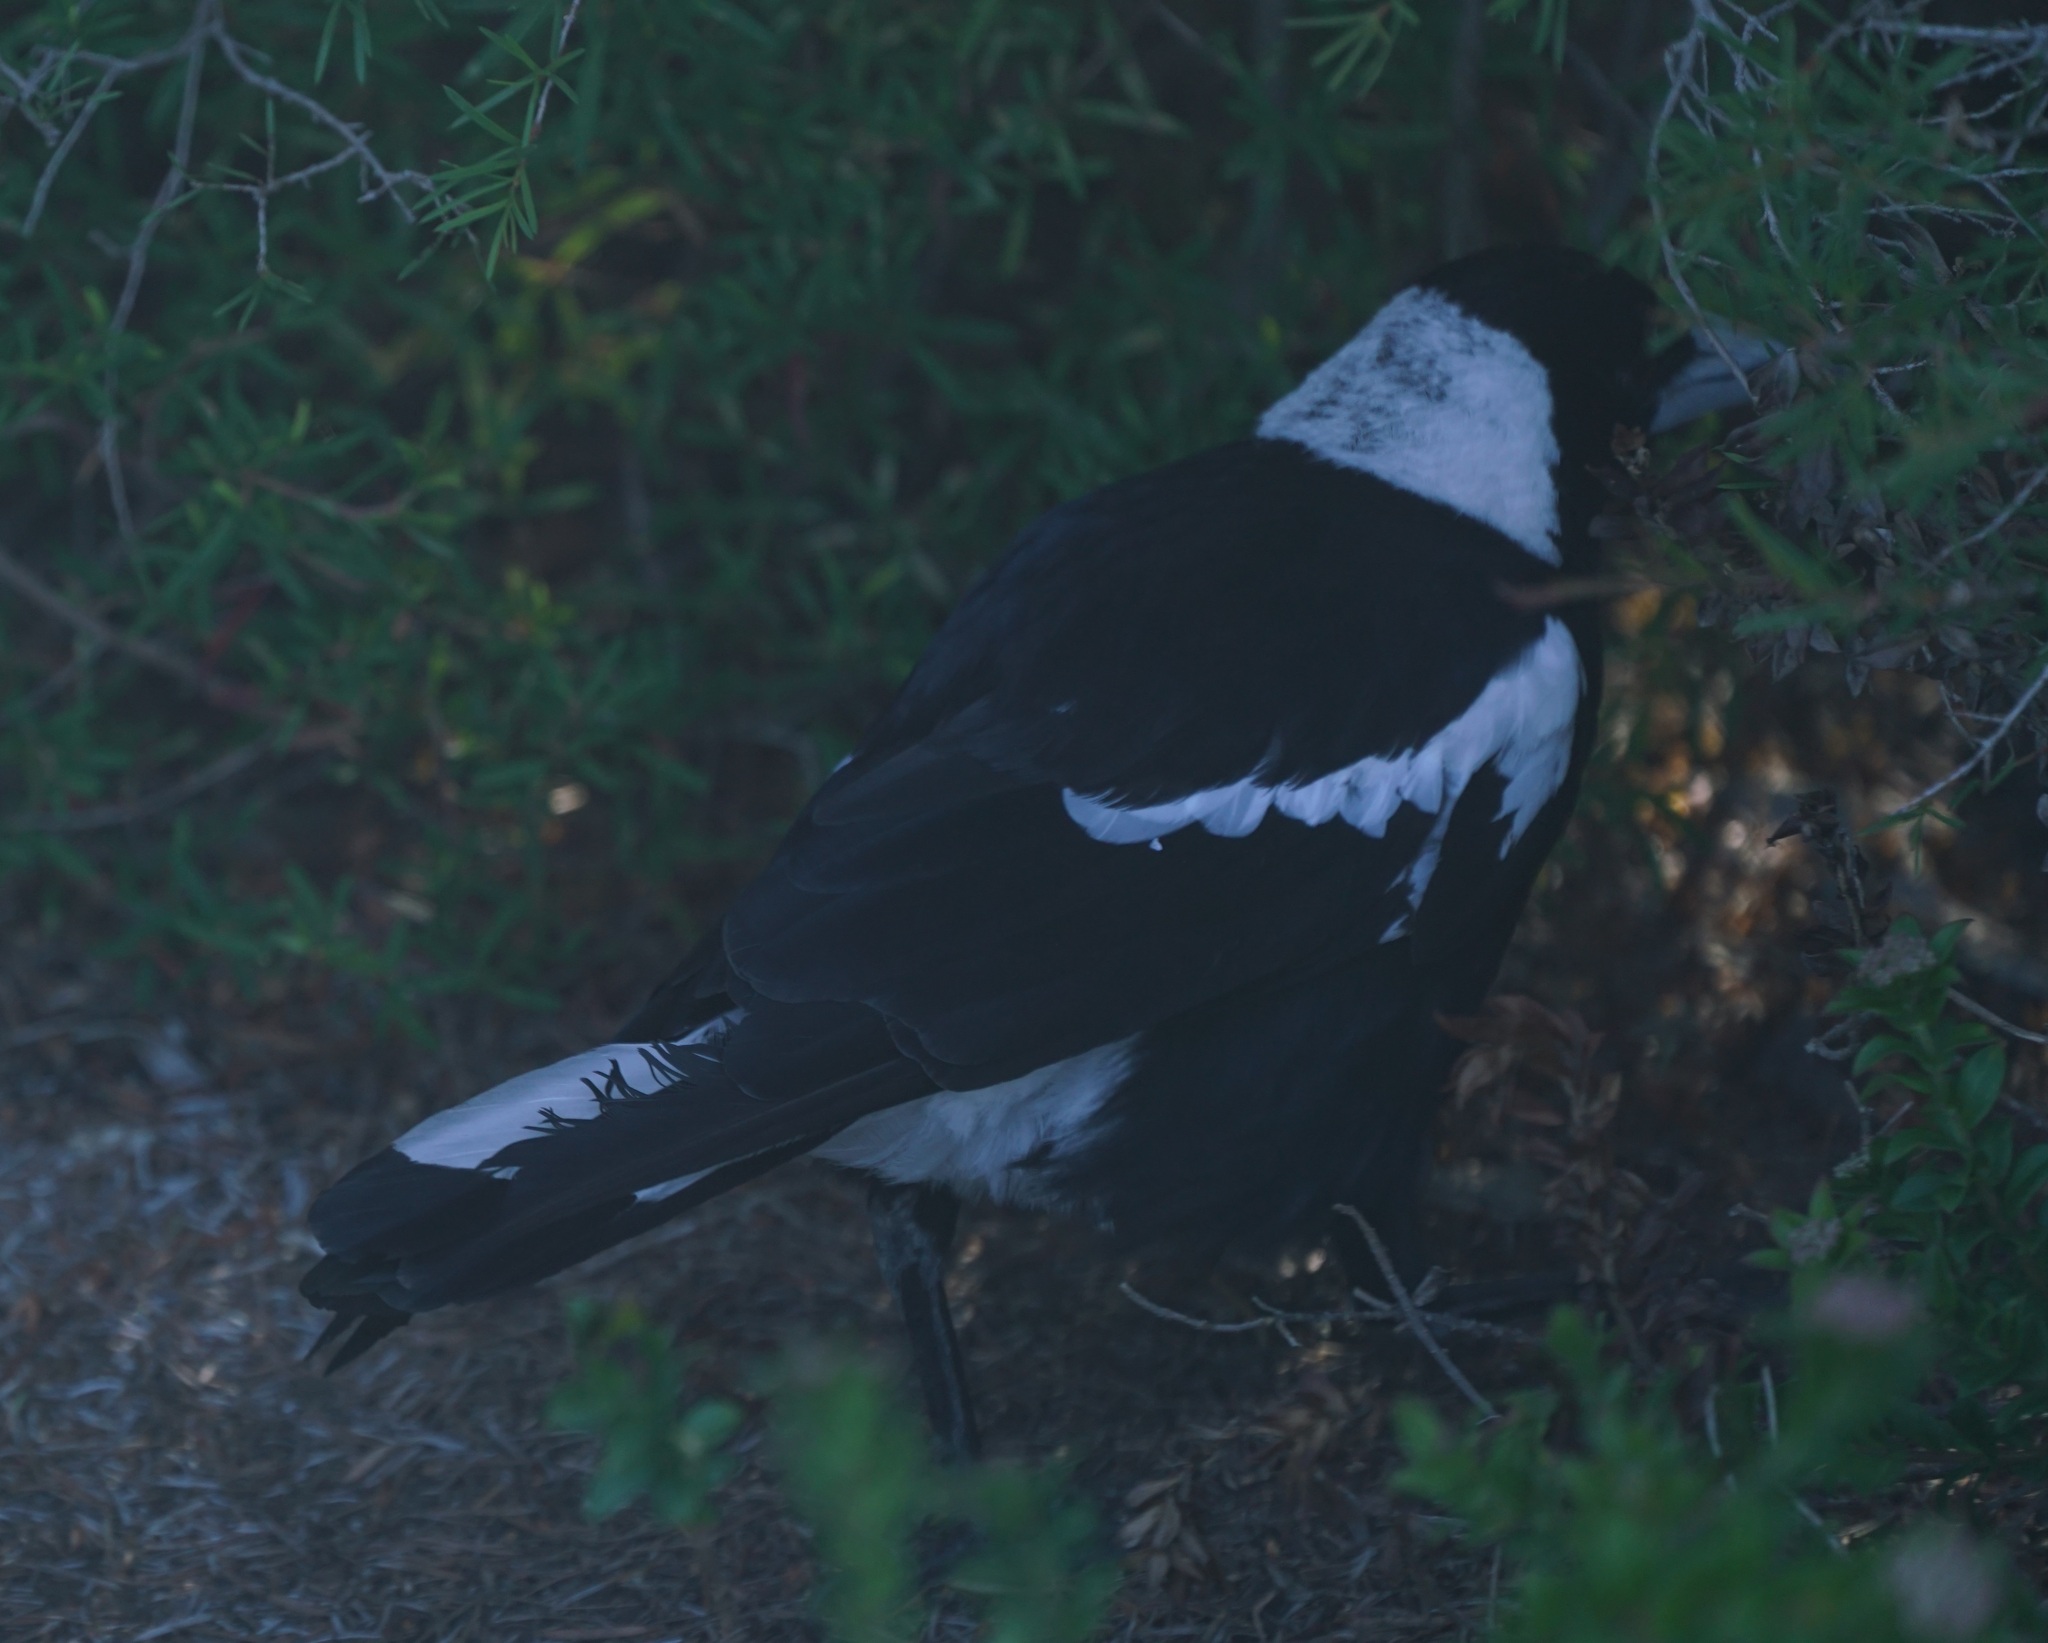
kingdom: Animalia
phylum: Chordata
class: Aves
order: Passeriformes
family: Cracticidae
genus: Gymnorhina
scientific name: Gymnorhina tibicen
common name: Australian magpie
